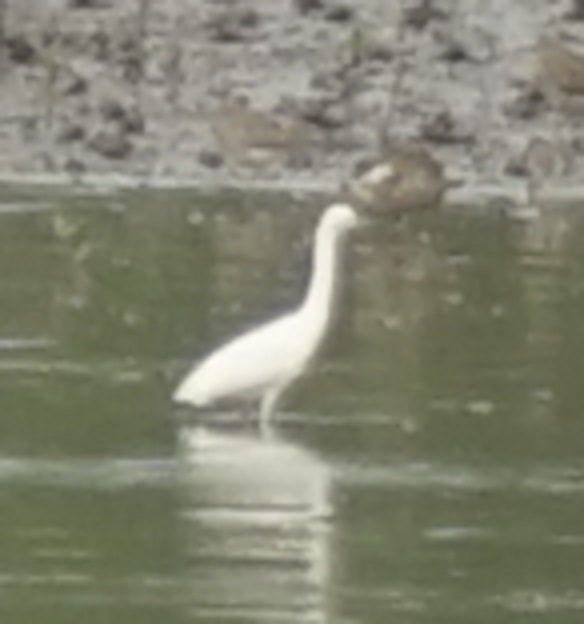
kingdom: Animalia
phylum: Chordata
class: Aves
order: Pelecaniformes
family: Ardeidae
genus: Egretta
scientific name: Egretta garzetta
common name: Little egret
